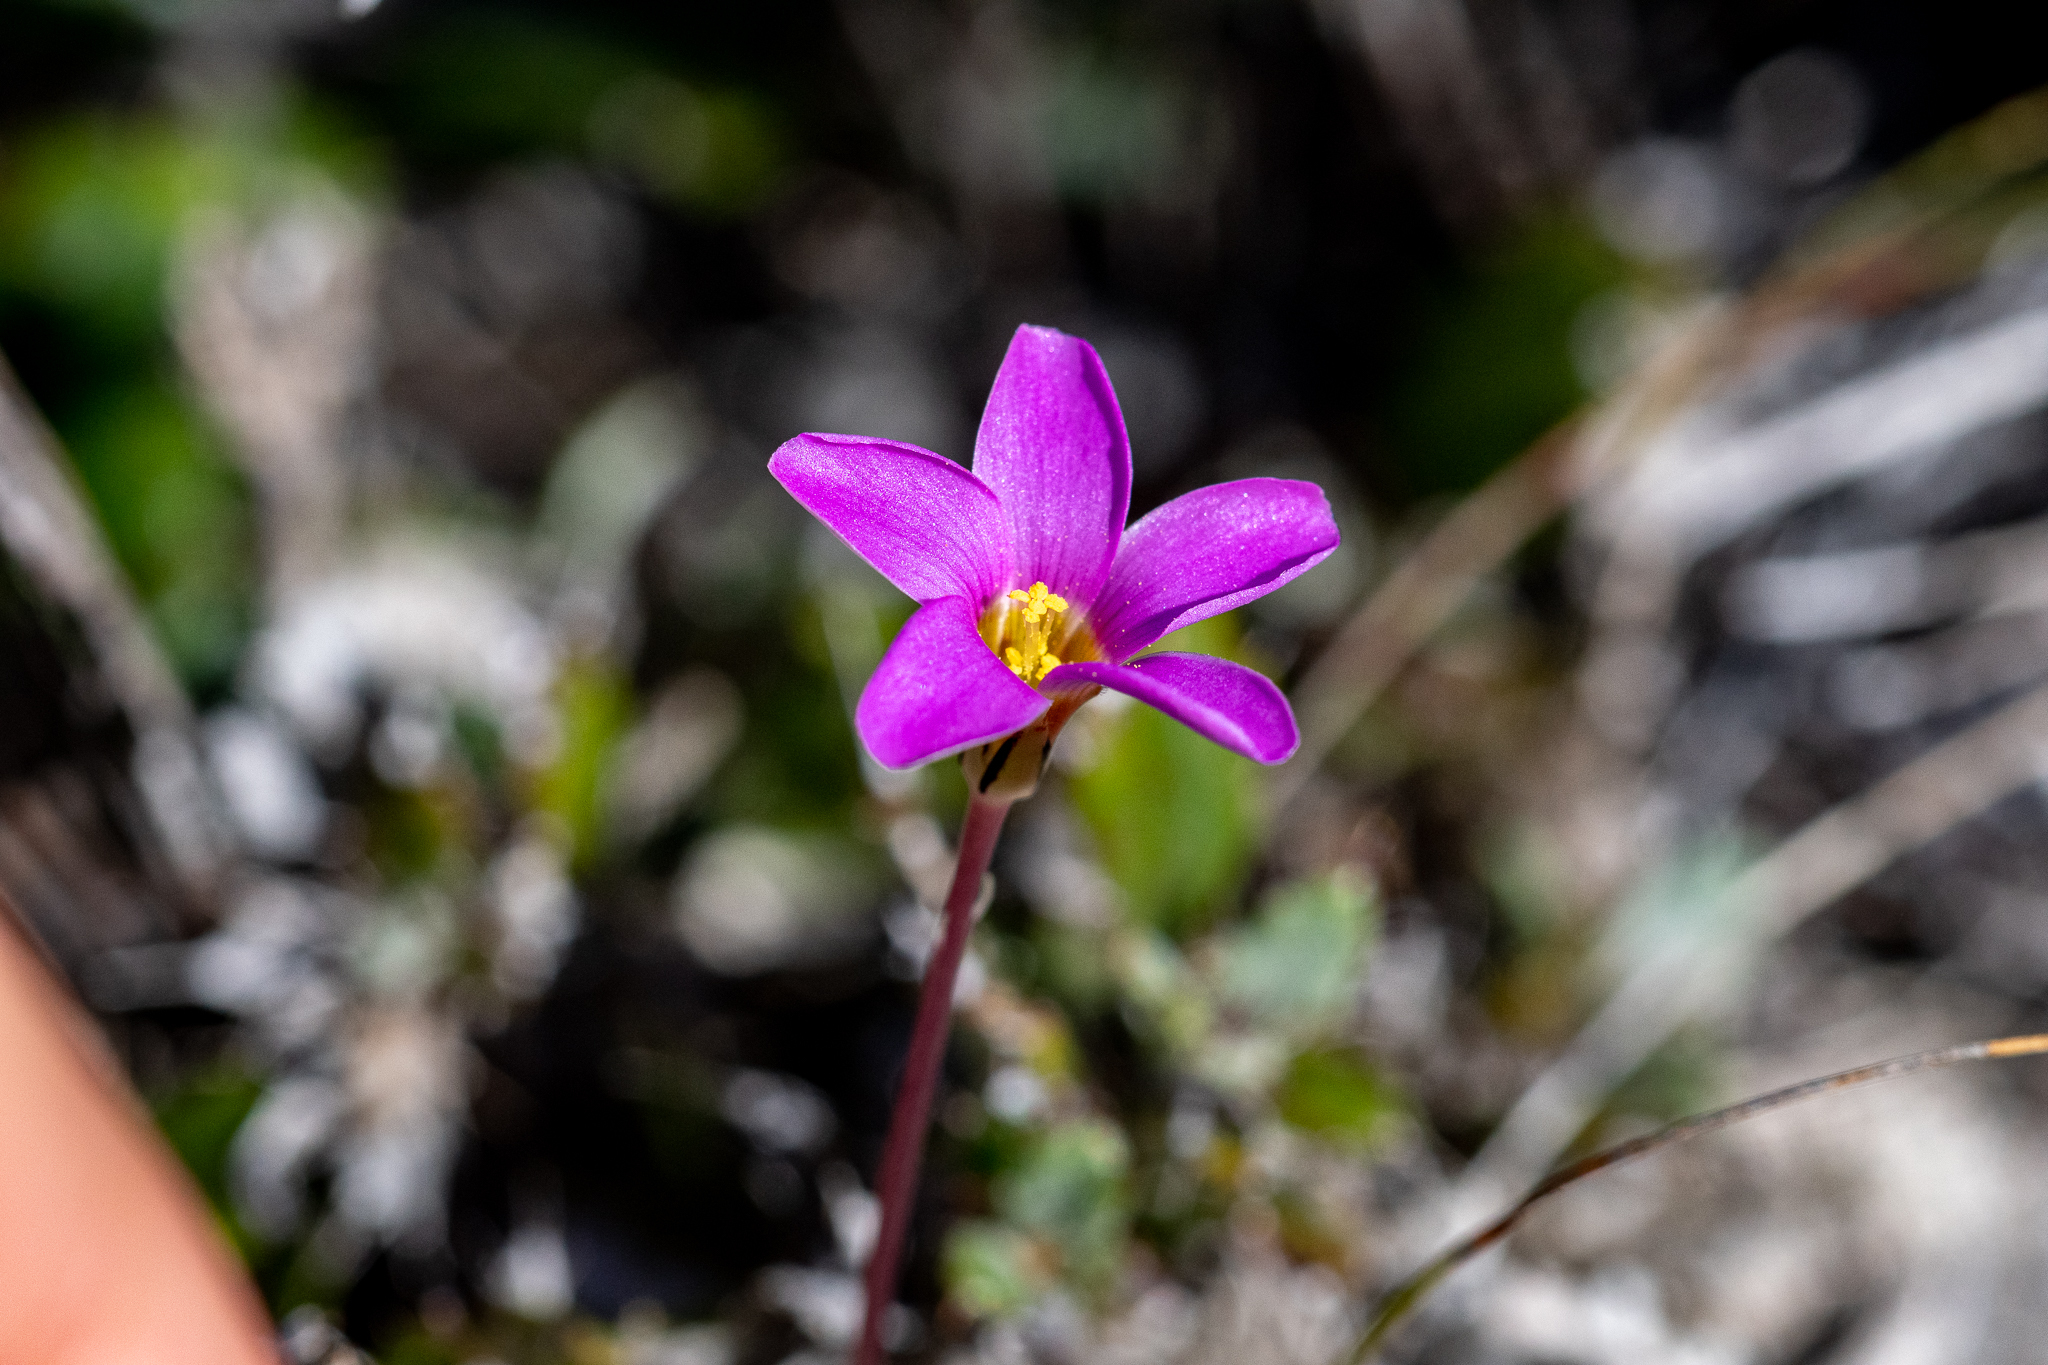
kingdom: Plantae
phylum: Tracheophyta
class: Magnoliopsida
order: Oxalidales
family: Oxalidaceae
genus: Oxalis
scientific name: Oxalis depressa
